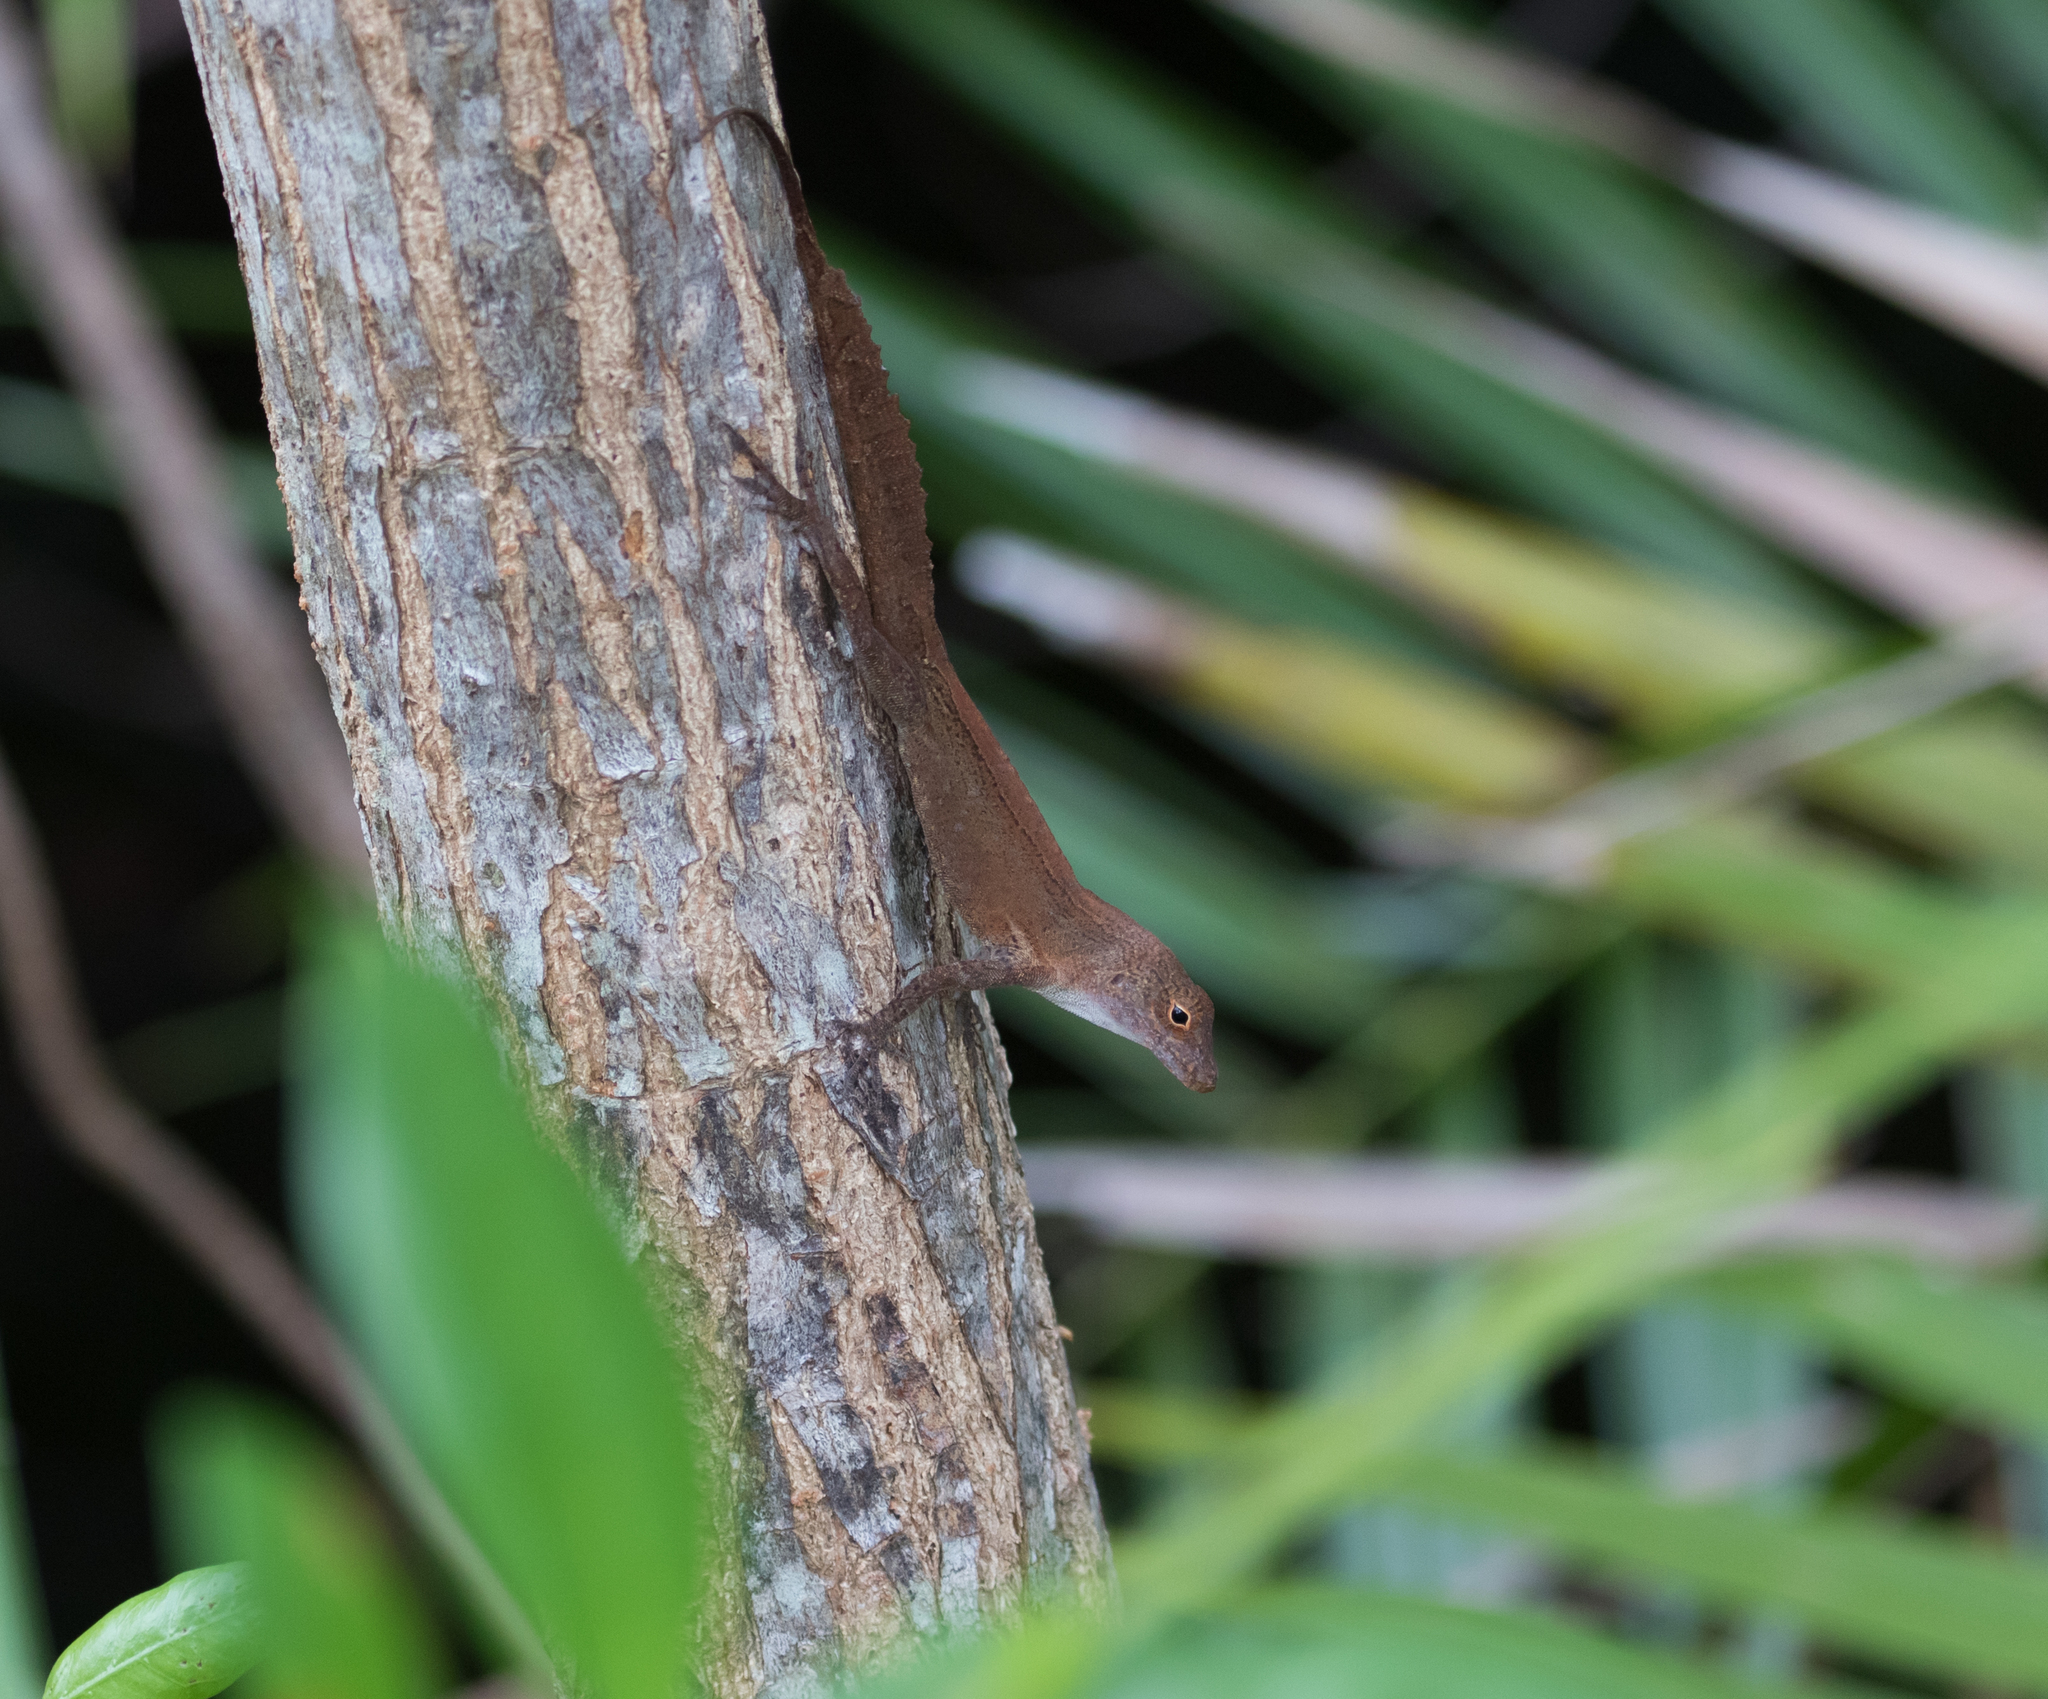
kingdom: Animalia
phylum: Chordata
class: Squamata
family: Dactyloidae
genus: Anolis
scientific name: Anolis cristatellus
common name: Crested anole
